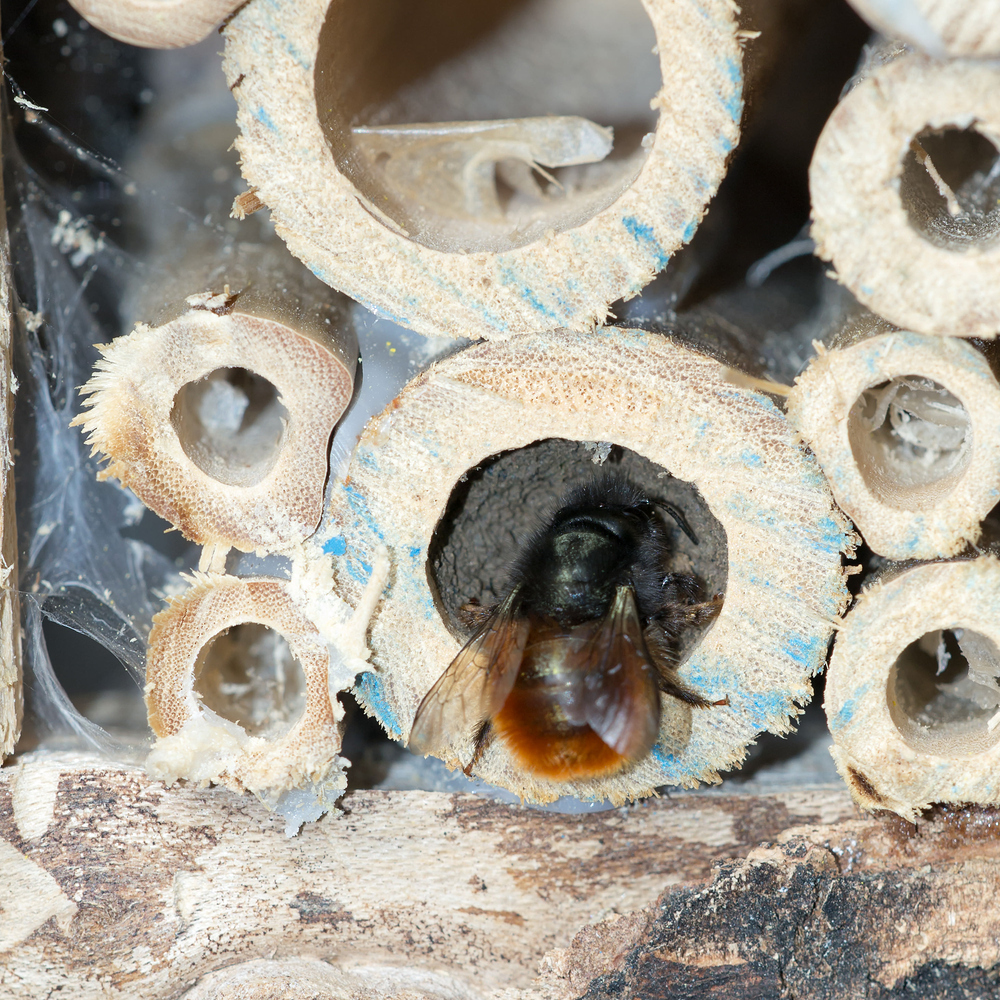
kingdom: Animalia
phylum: Arthropoda
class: Insecta
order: Hymenoptera
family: Megachilidae
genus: Osmia
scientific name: Osmia cornuta
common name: Mason bee
